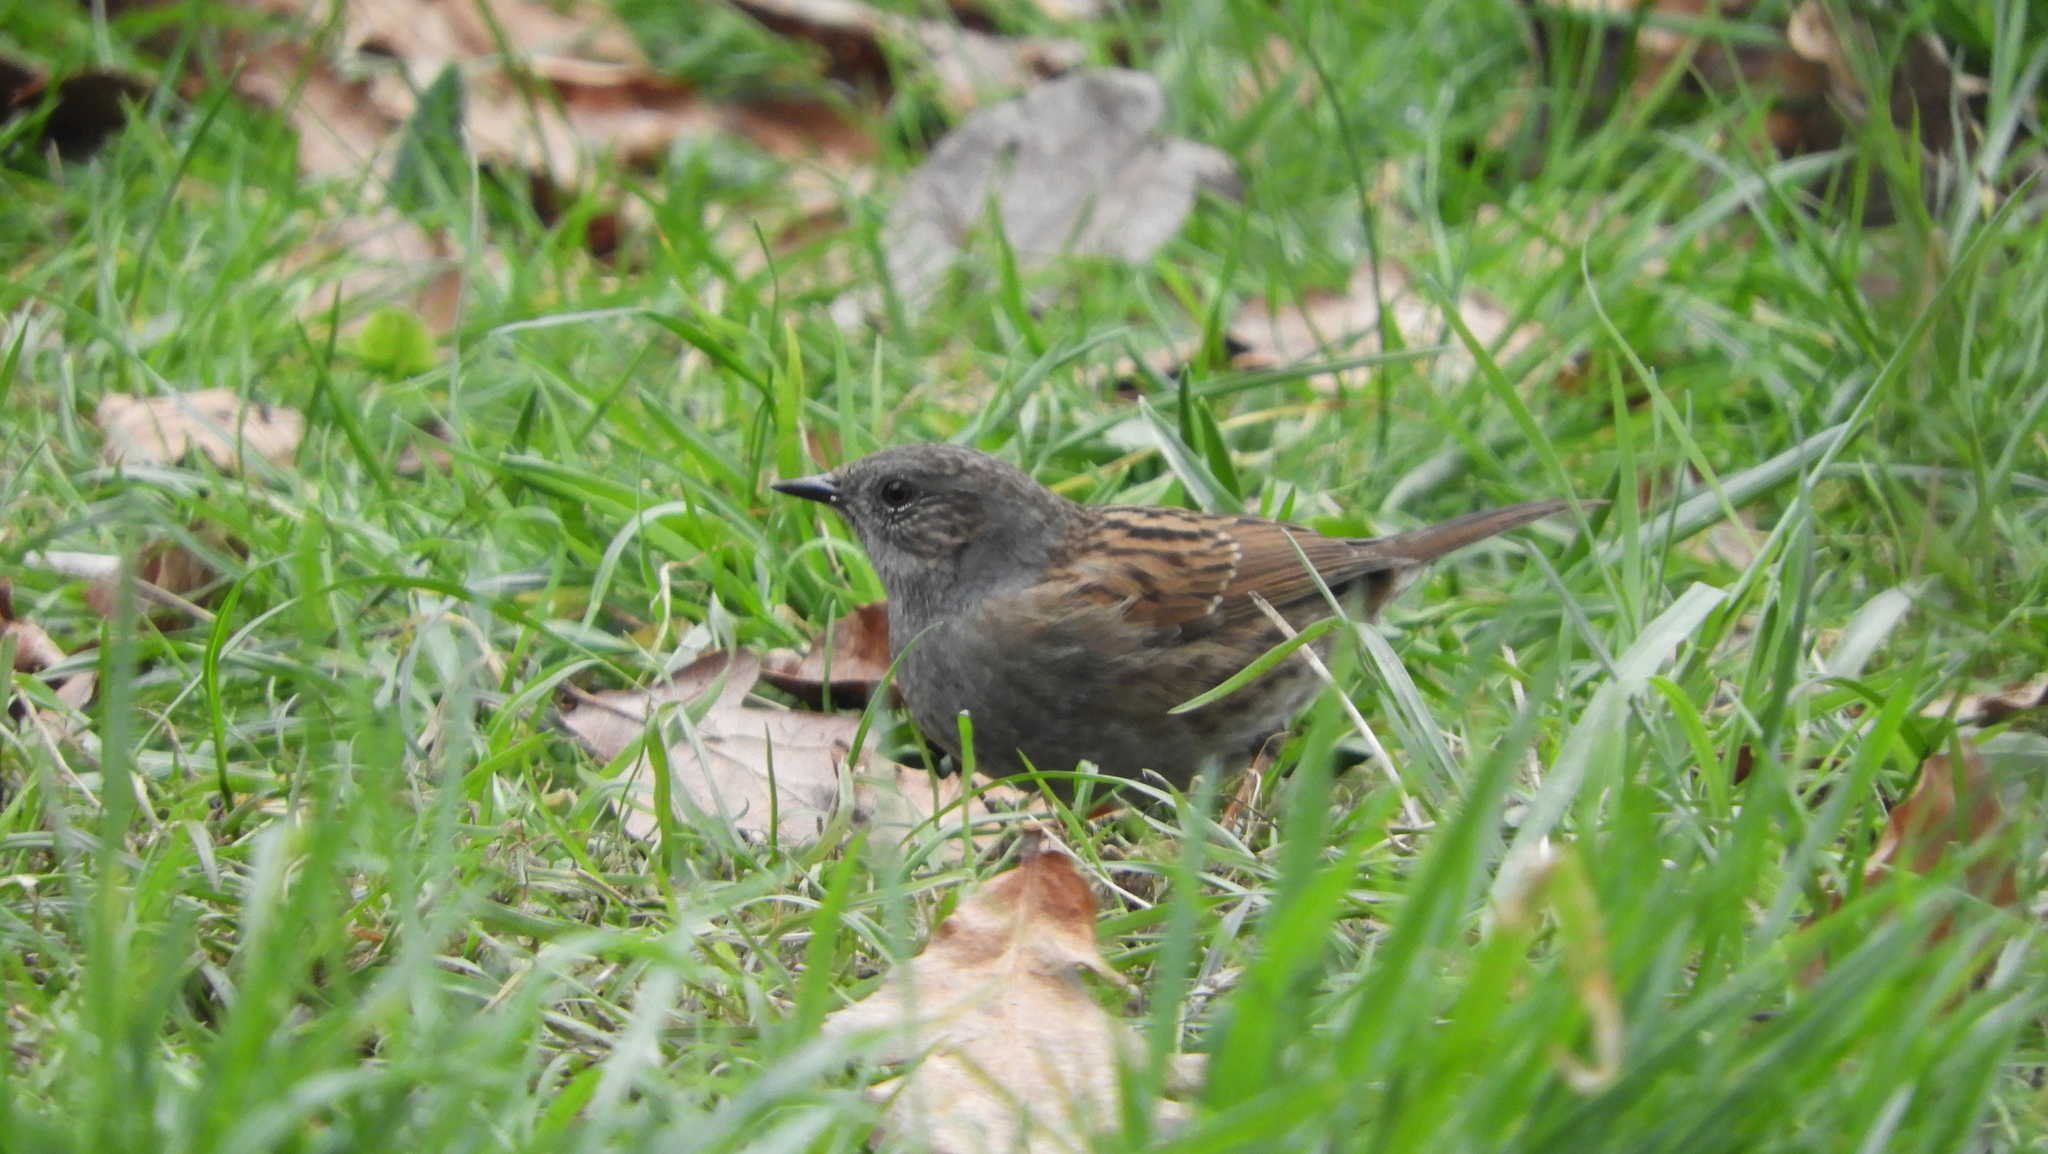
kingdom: Animalia
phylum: Chordata
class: Aves
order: Passeriformes
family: Prunellidae
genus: Prunella
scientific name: Prunella modularis
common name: Dunnock
